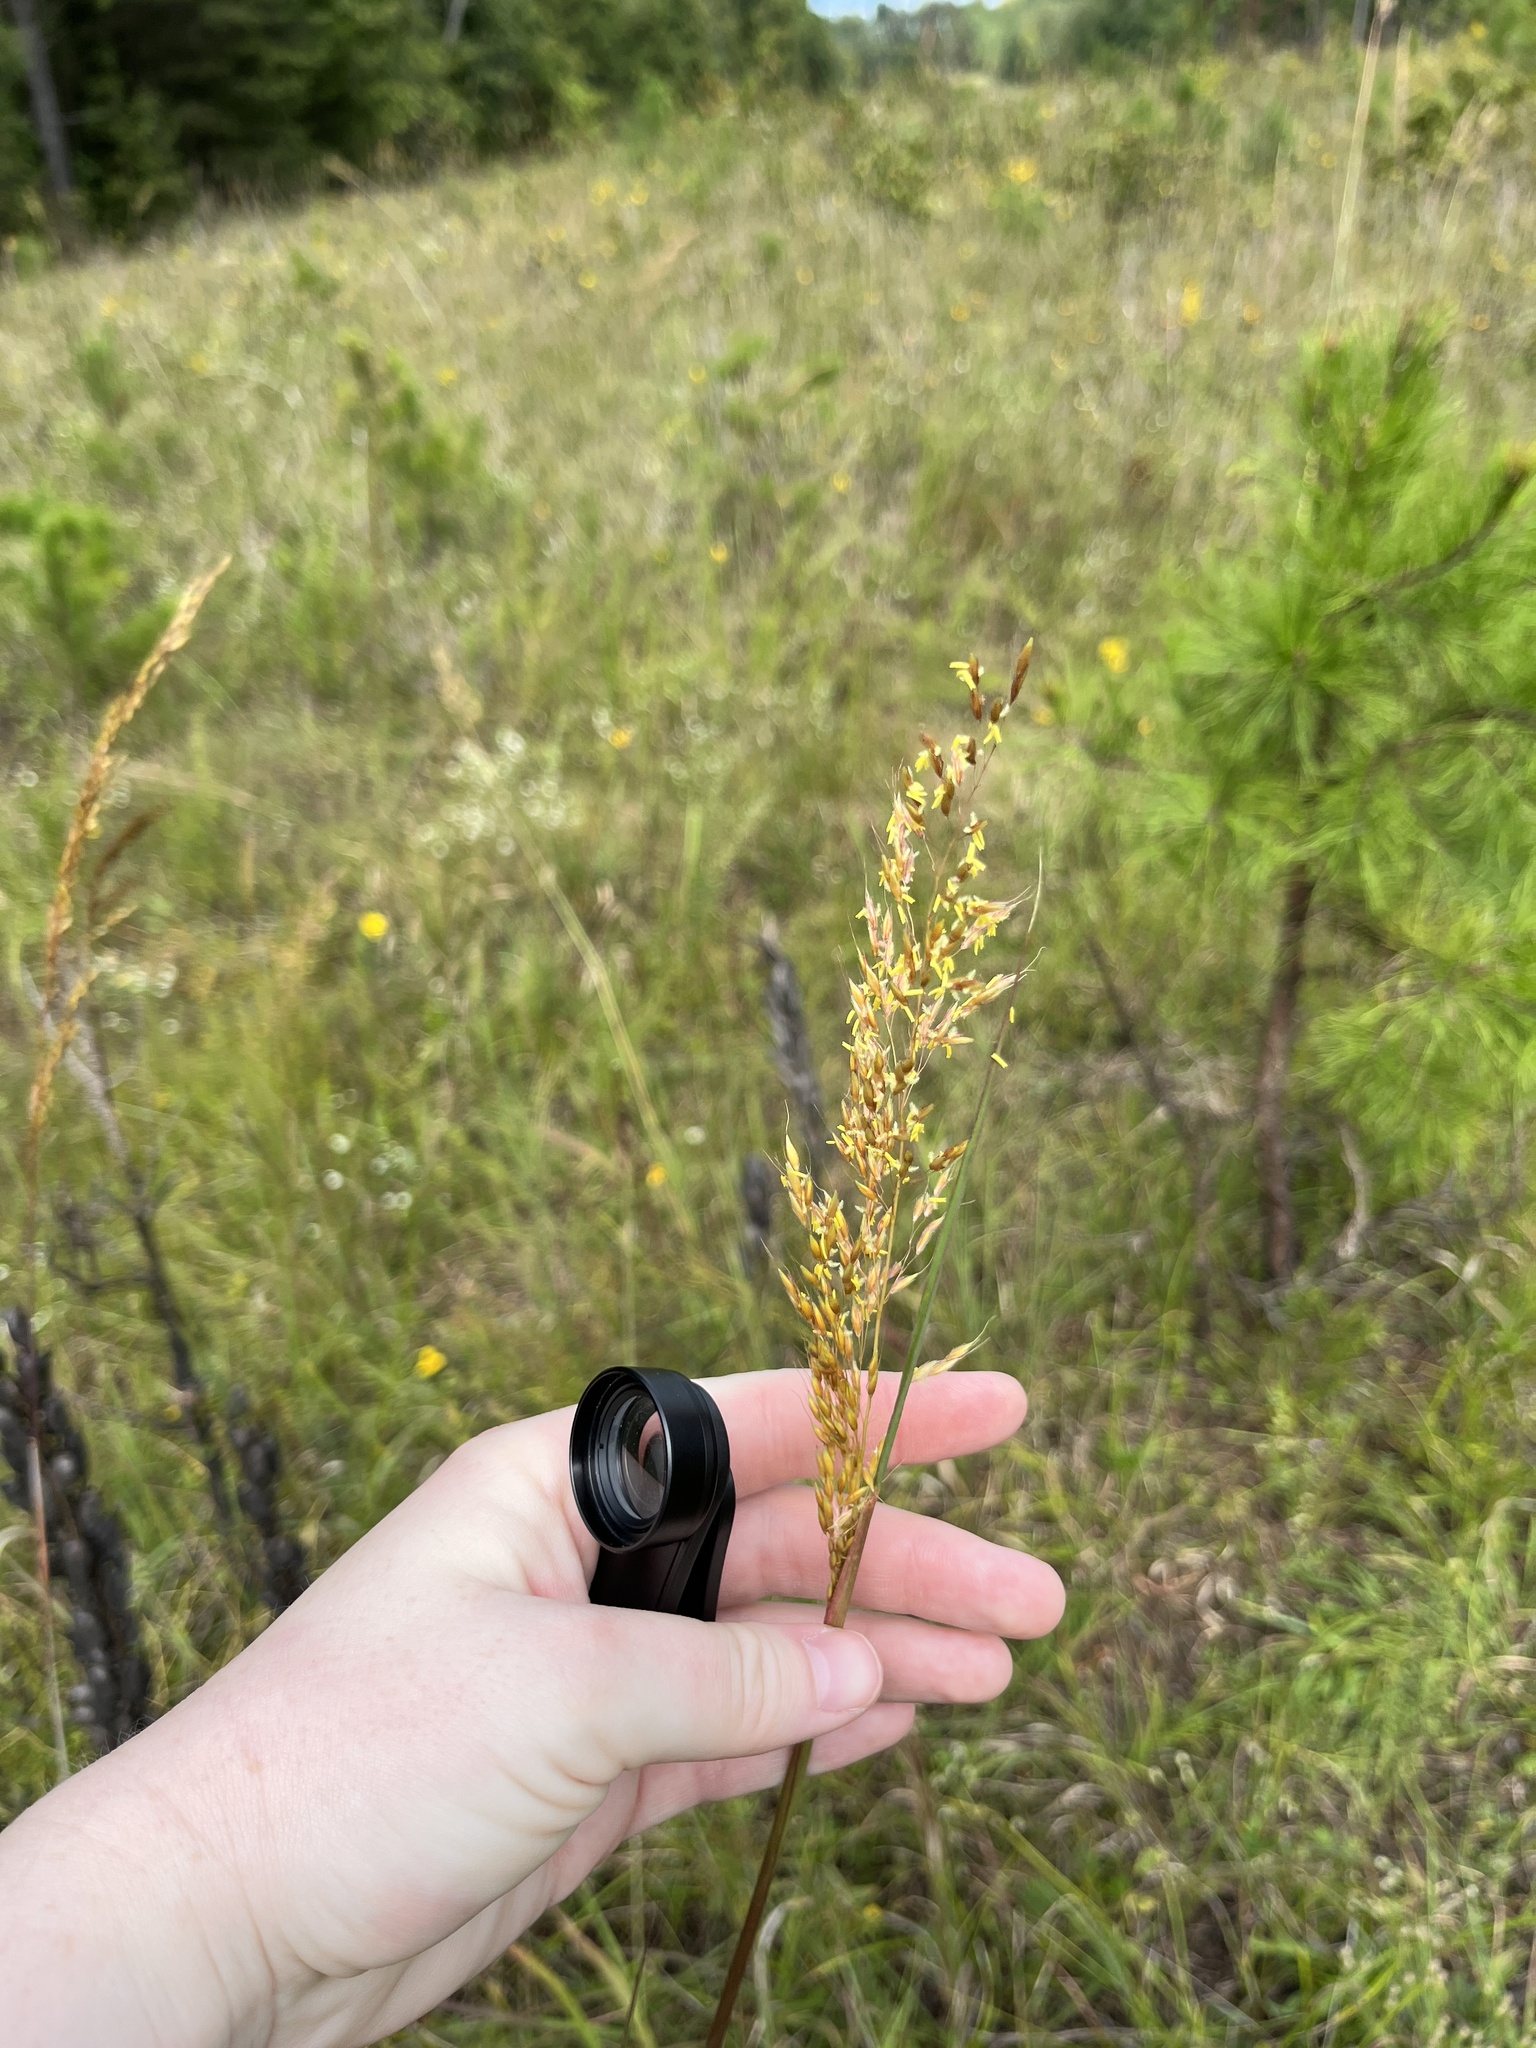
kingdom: Plantae
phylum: Tracheophyta
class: Liliopsida
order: Poales
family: Poaceae
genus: Sorghastrum
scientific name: Sorghastrum nutans
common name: Indian grass
